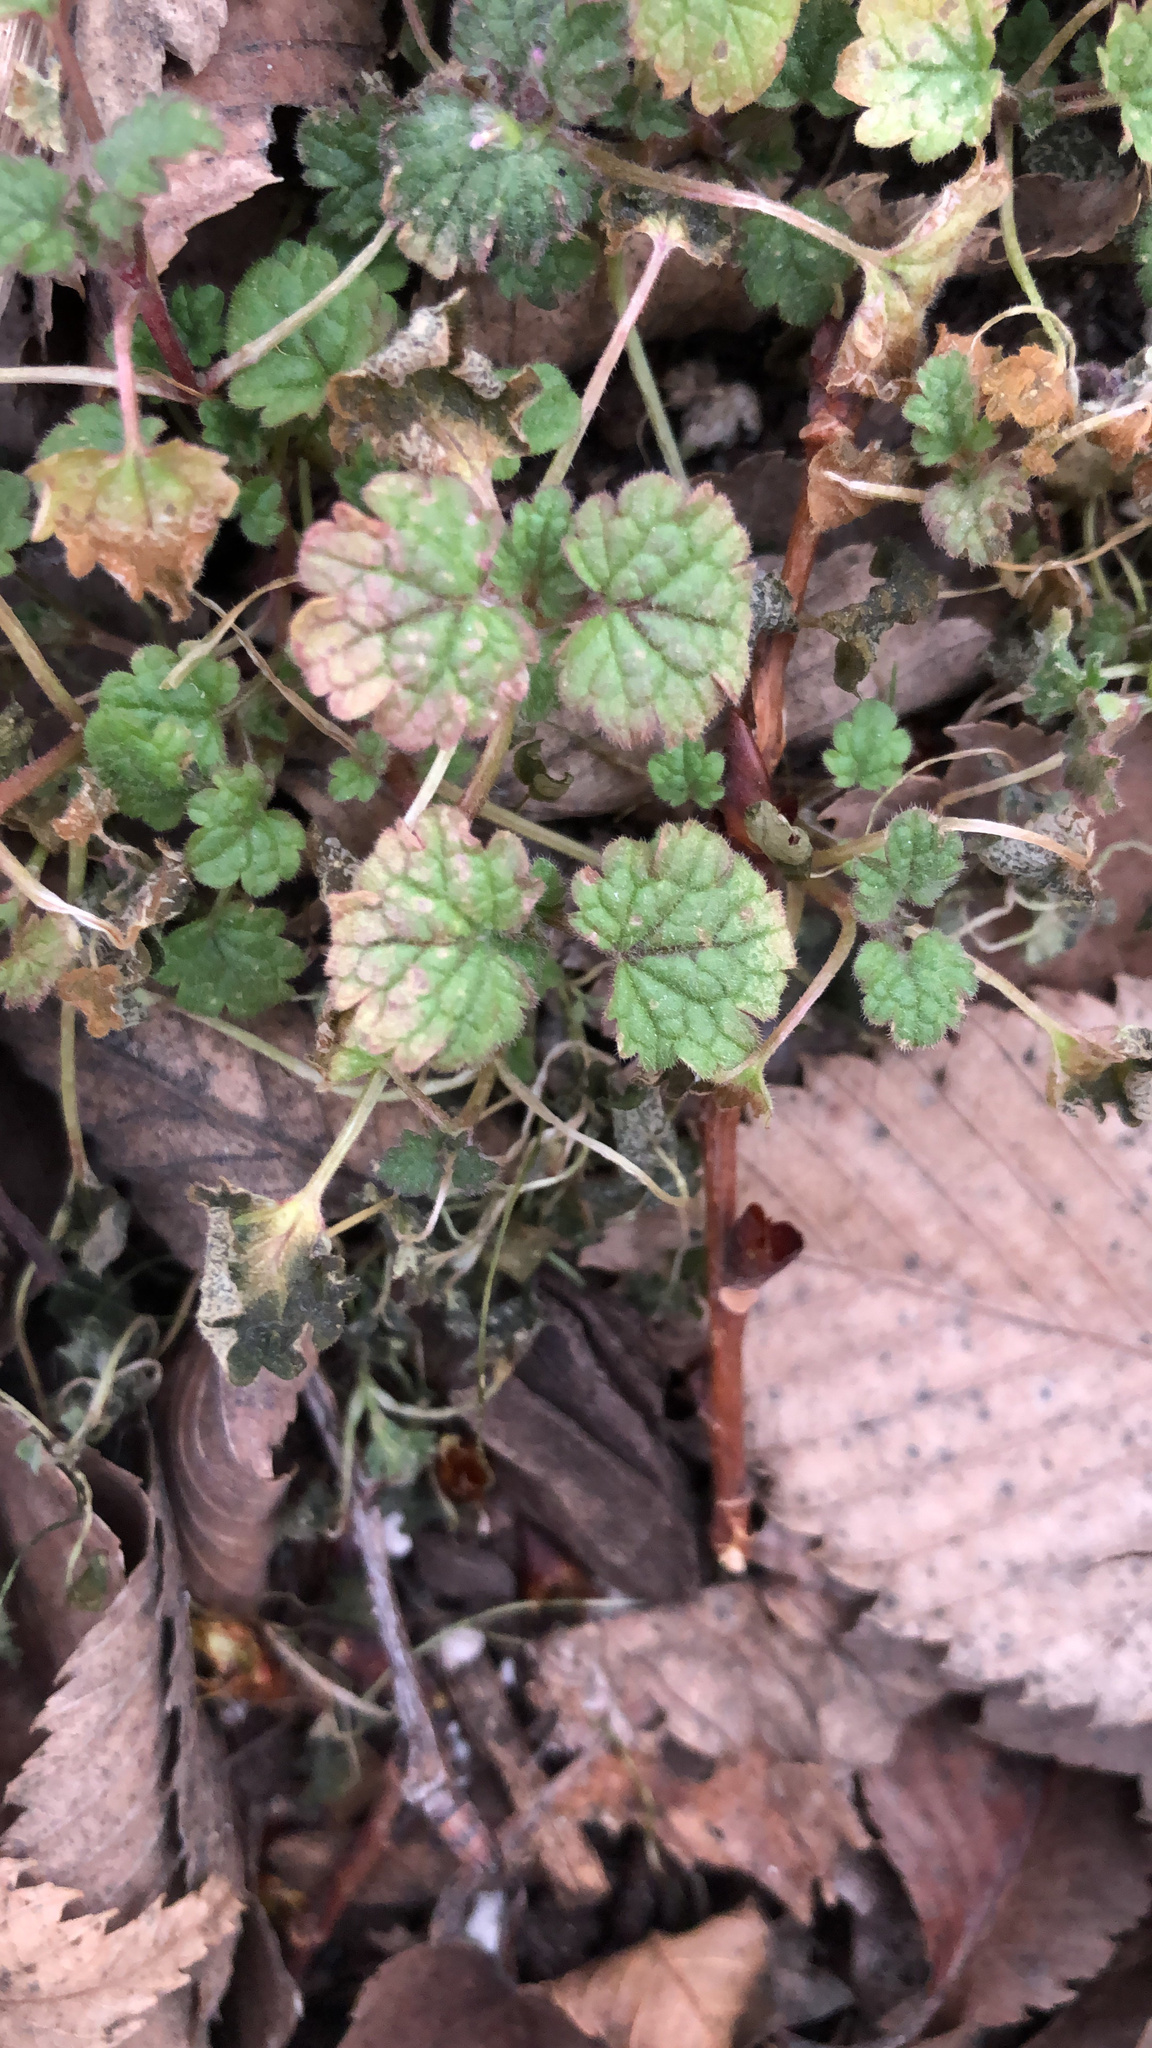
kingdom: Plantae
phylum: Tracheophyta
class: Magnoliopsida
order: Lamiales
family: Lamiaceae
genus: Glechoma
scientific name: Glechoma hederacea
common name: Ground ivy
